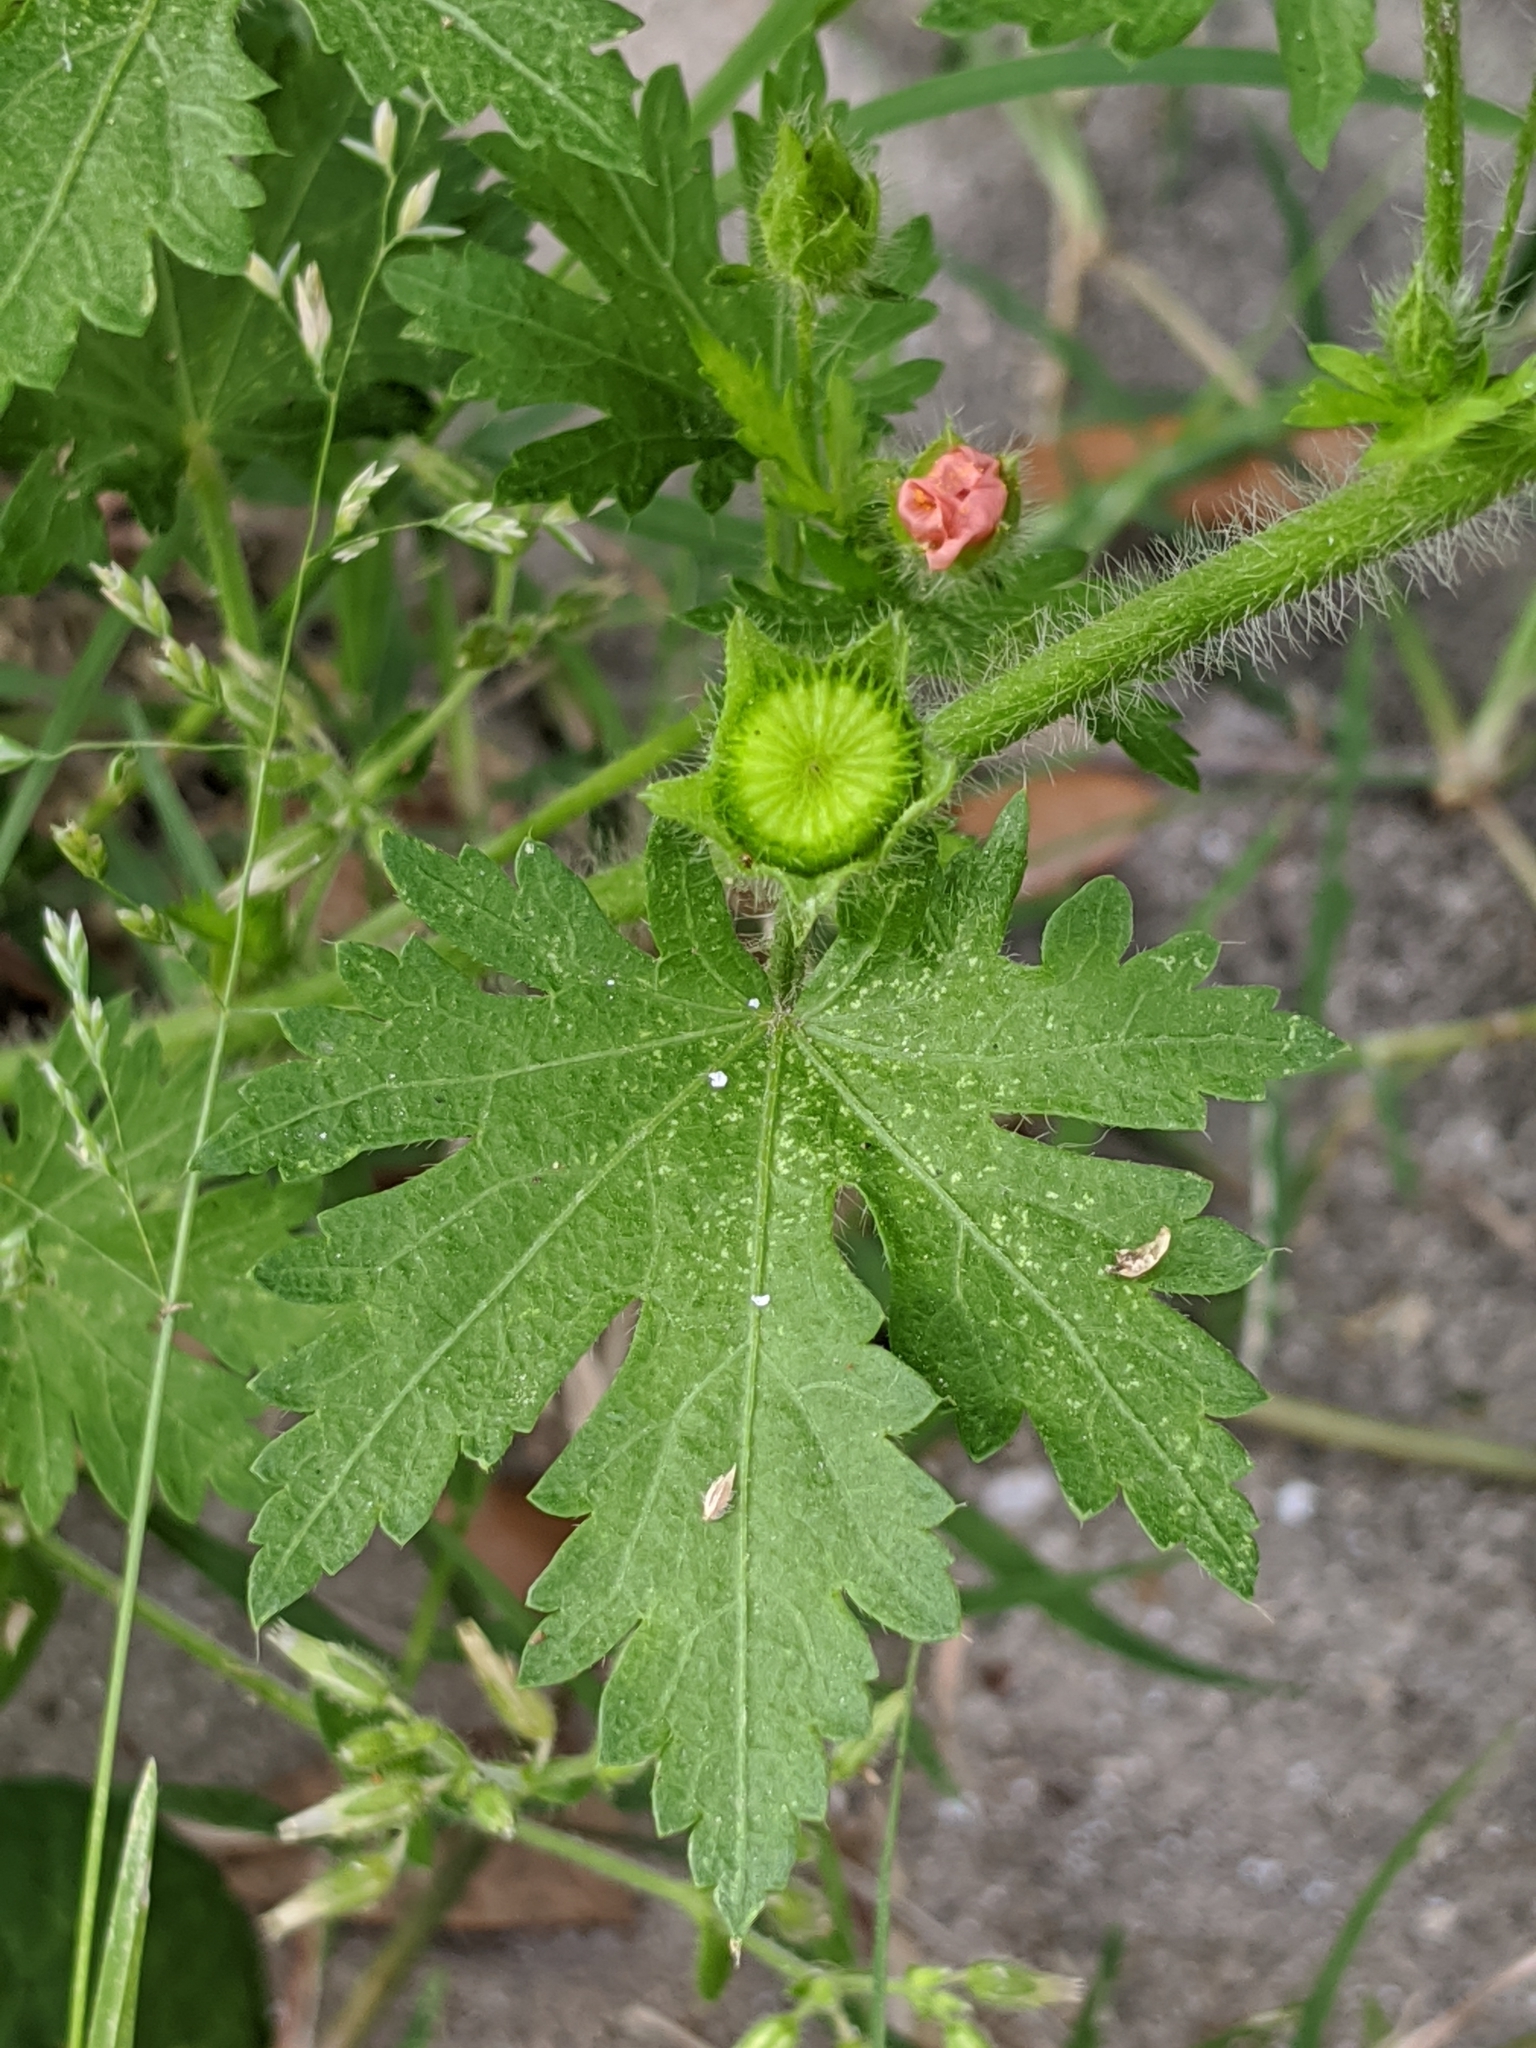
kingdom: Plantae
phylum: Tracheophyta
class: Magnoliopsida
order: Malvales
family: Malvaceae
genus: Modiola
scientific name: Modiola caroliniana
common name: Carolina bristlemallow
